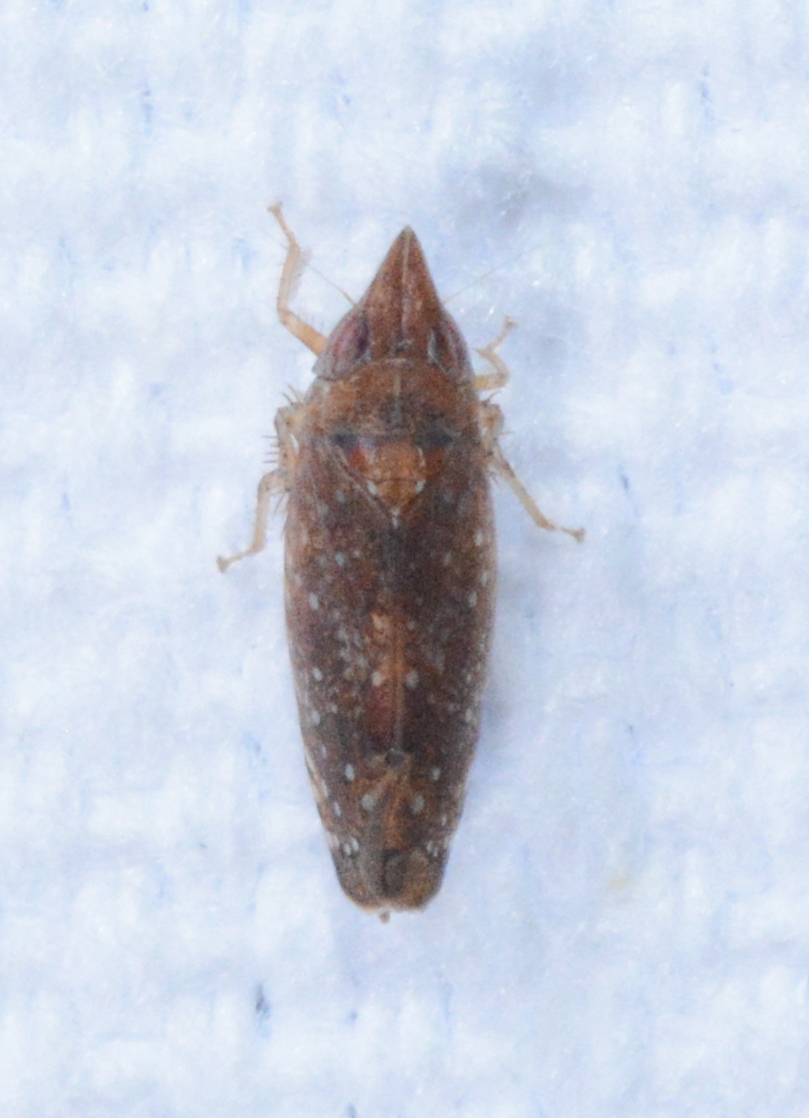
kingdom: Animalia
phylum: Arthropoda
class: Insecta
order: Hemiptera
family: Cicadellidae
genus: Scaphytopius
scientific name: Scaphytopius latus
